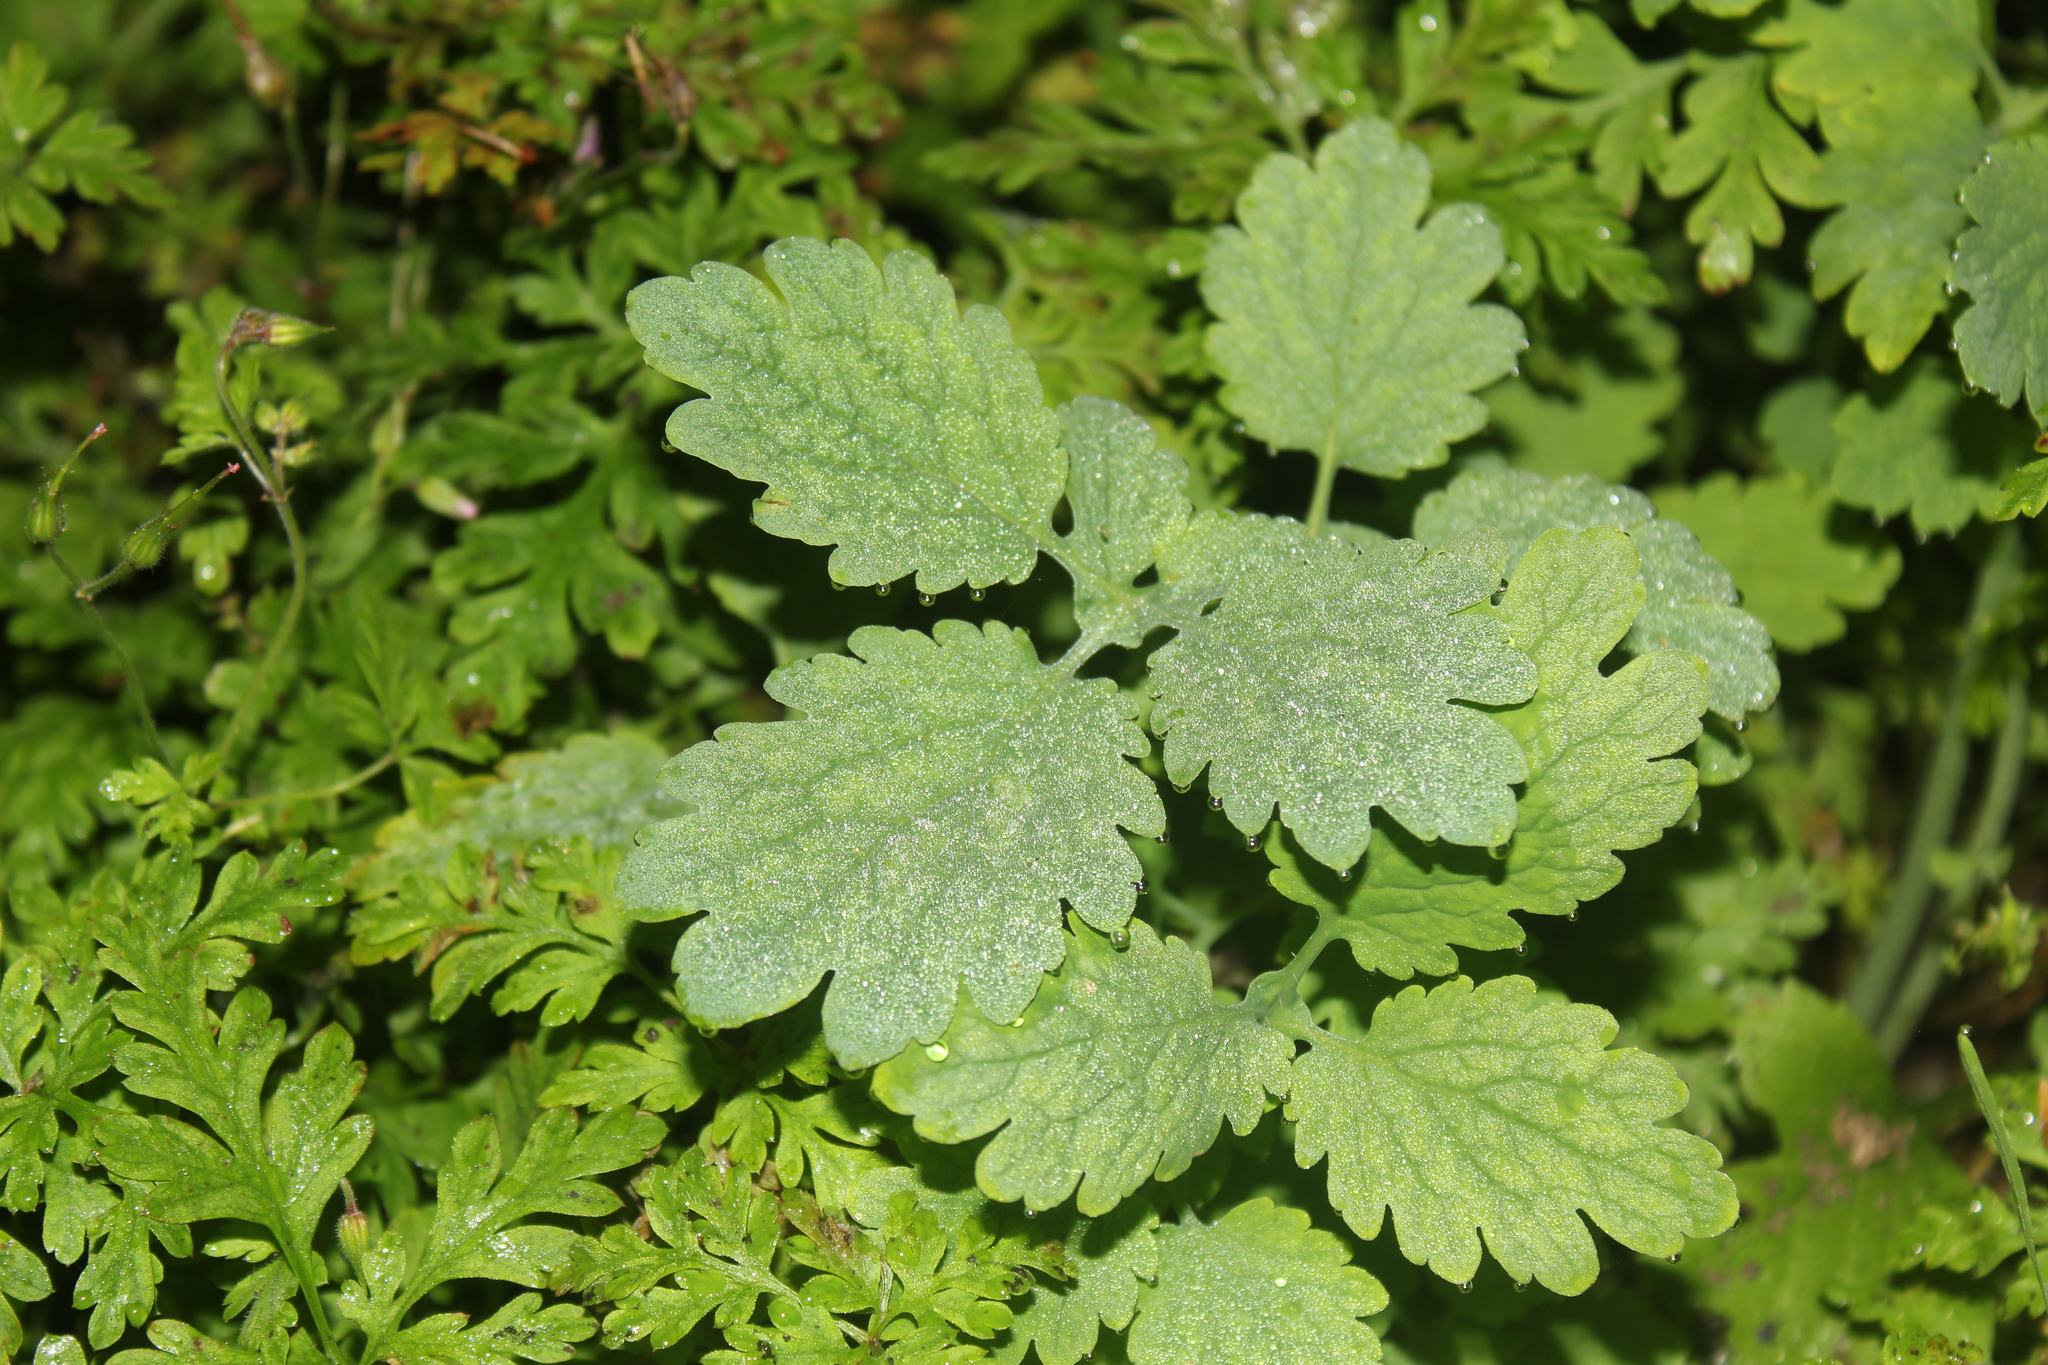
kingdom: Plantae
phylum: Tracheophyta
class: Magnoliopsida
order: Ranunculales
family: Papaveraceae
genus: Chelidonium
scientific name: Chelidonium majus
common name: Greater celandine
